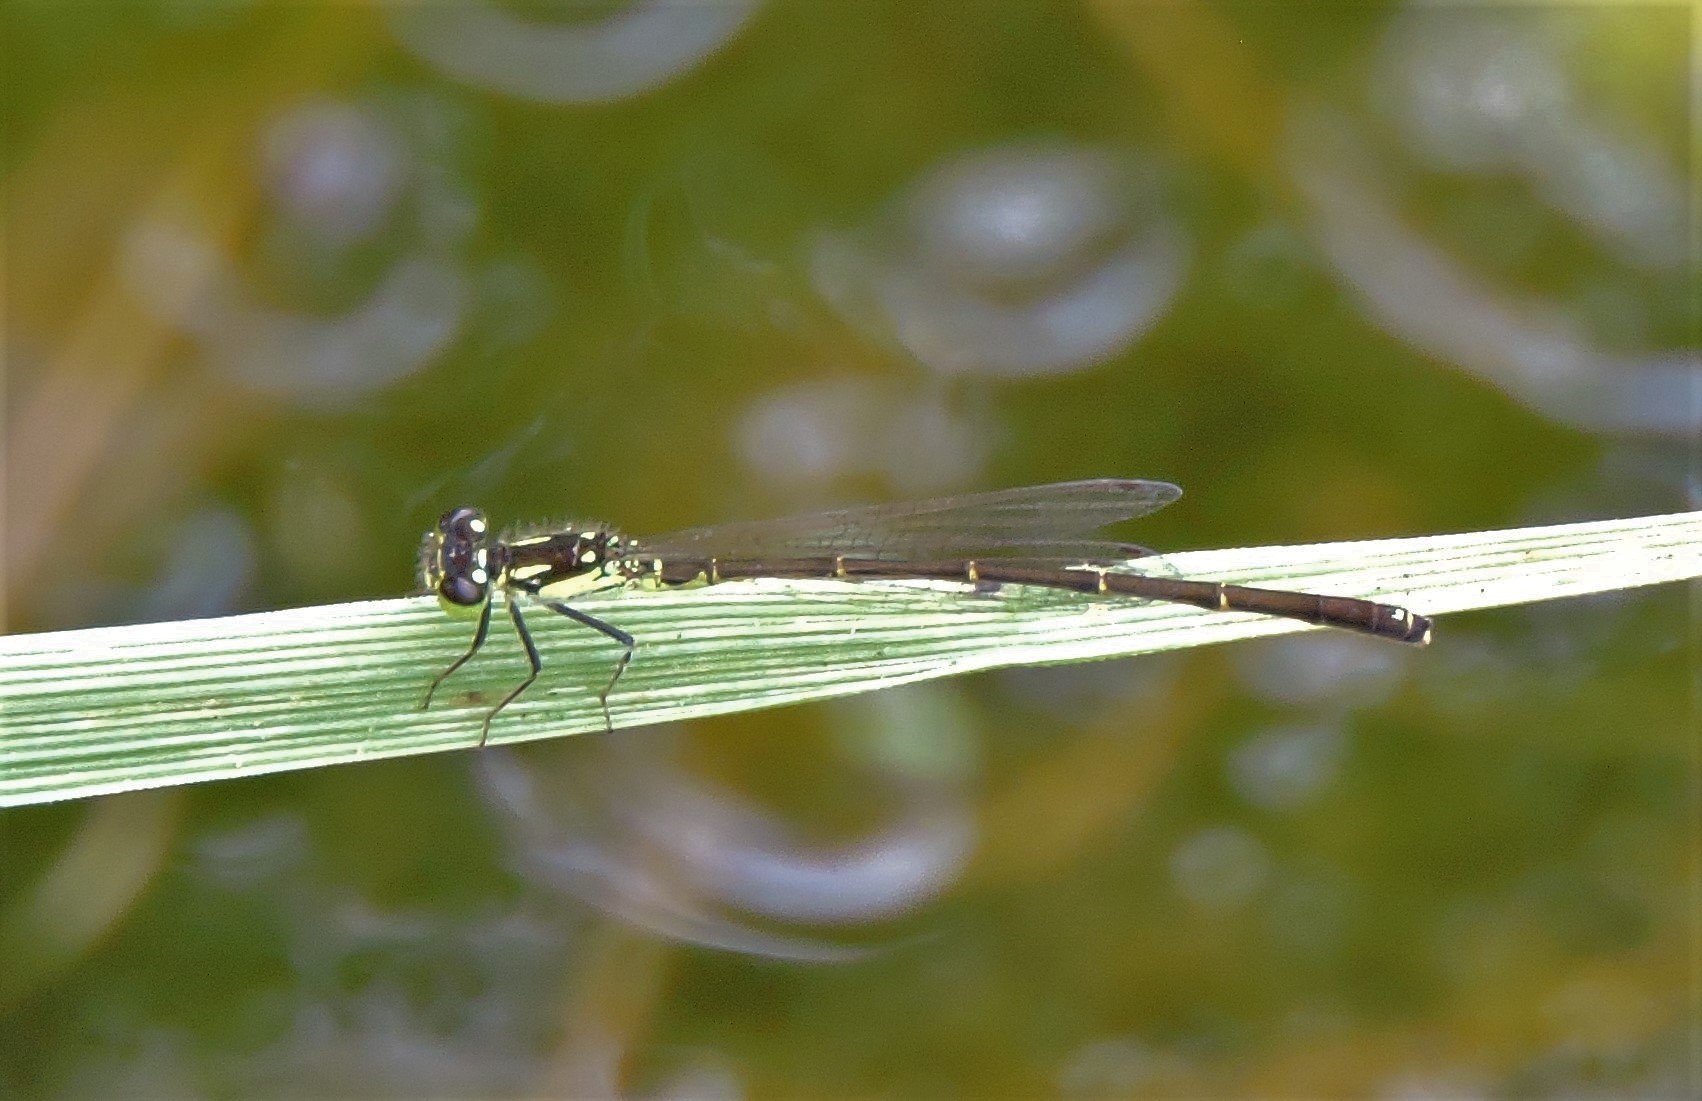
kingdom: Animalia
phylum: Arthropoda
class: Insecta
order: Odonata
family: Coenagrionidae
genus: Ischnura
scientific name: Ischnura posita
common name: Fragile forktail
